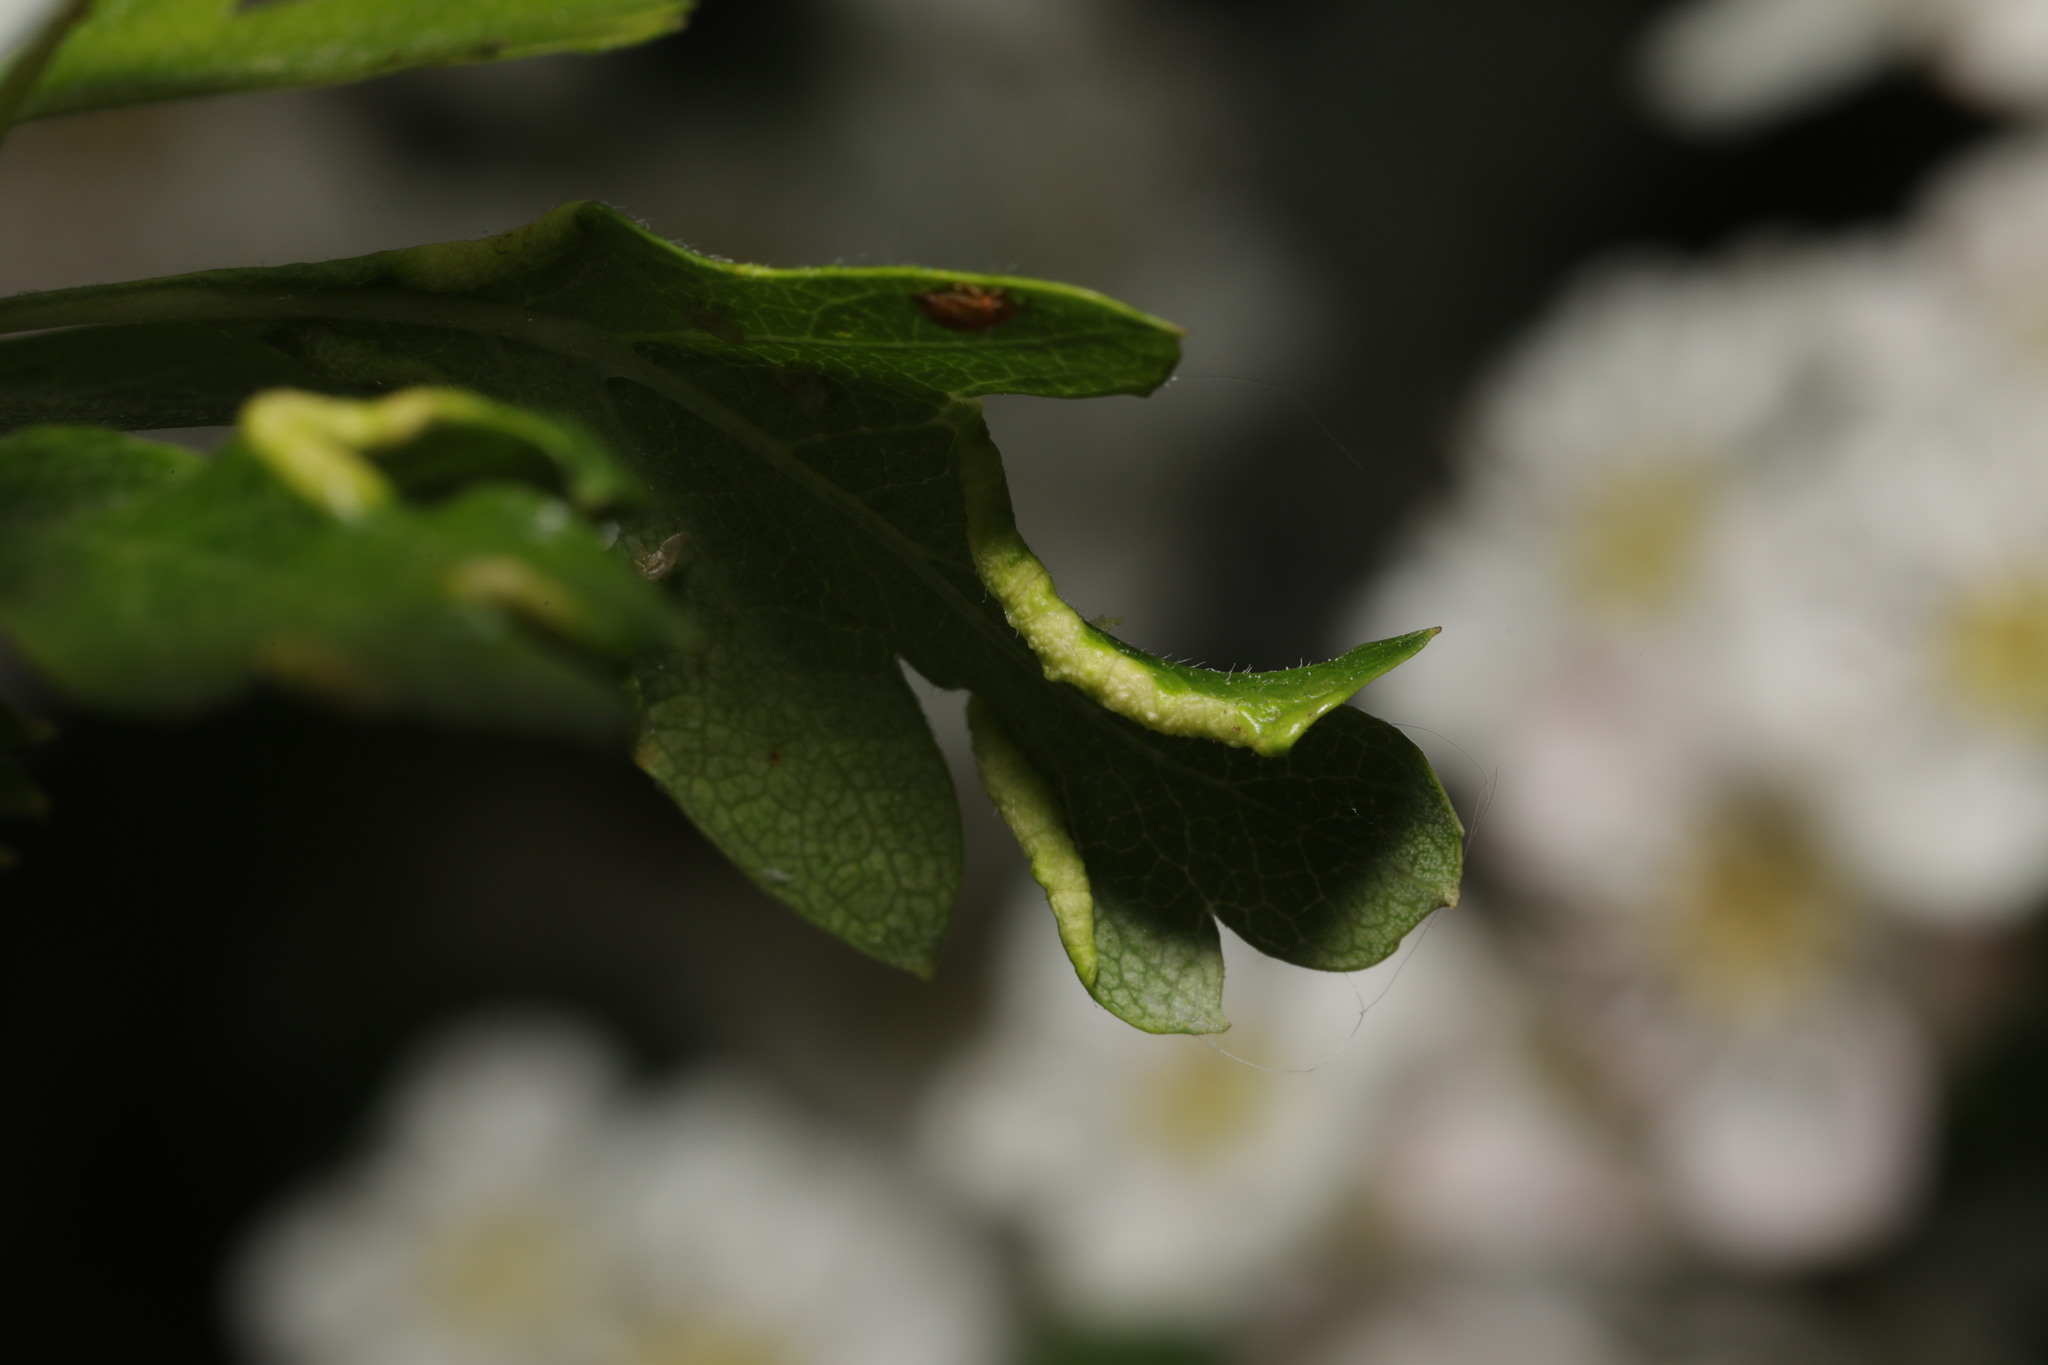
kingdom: Animalia
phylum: Arthropoda
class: Arachnida
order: Trombidiformes
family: Eriophyidae
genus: Phyllocoptes
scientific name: Phyllocoptes goniothorax
